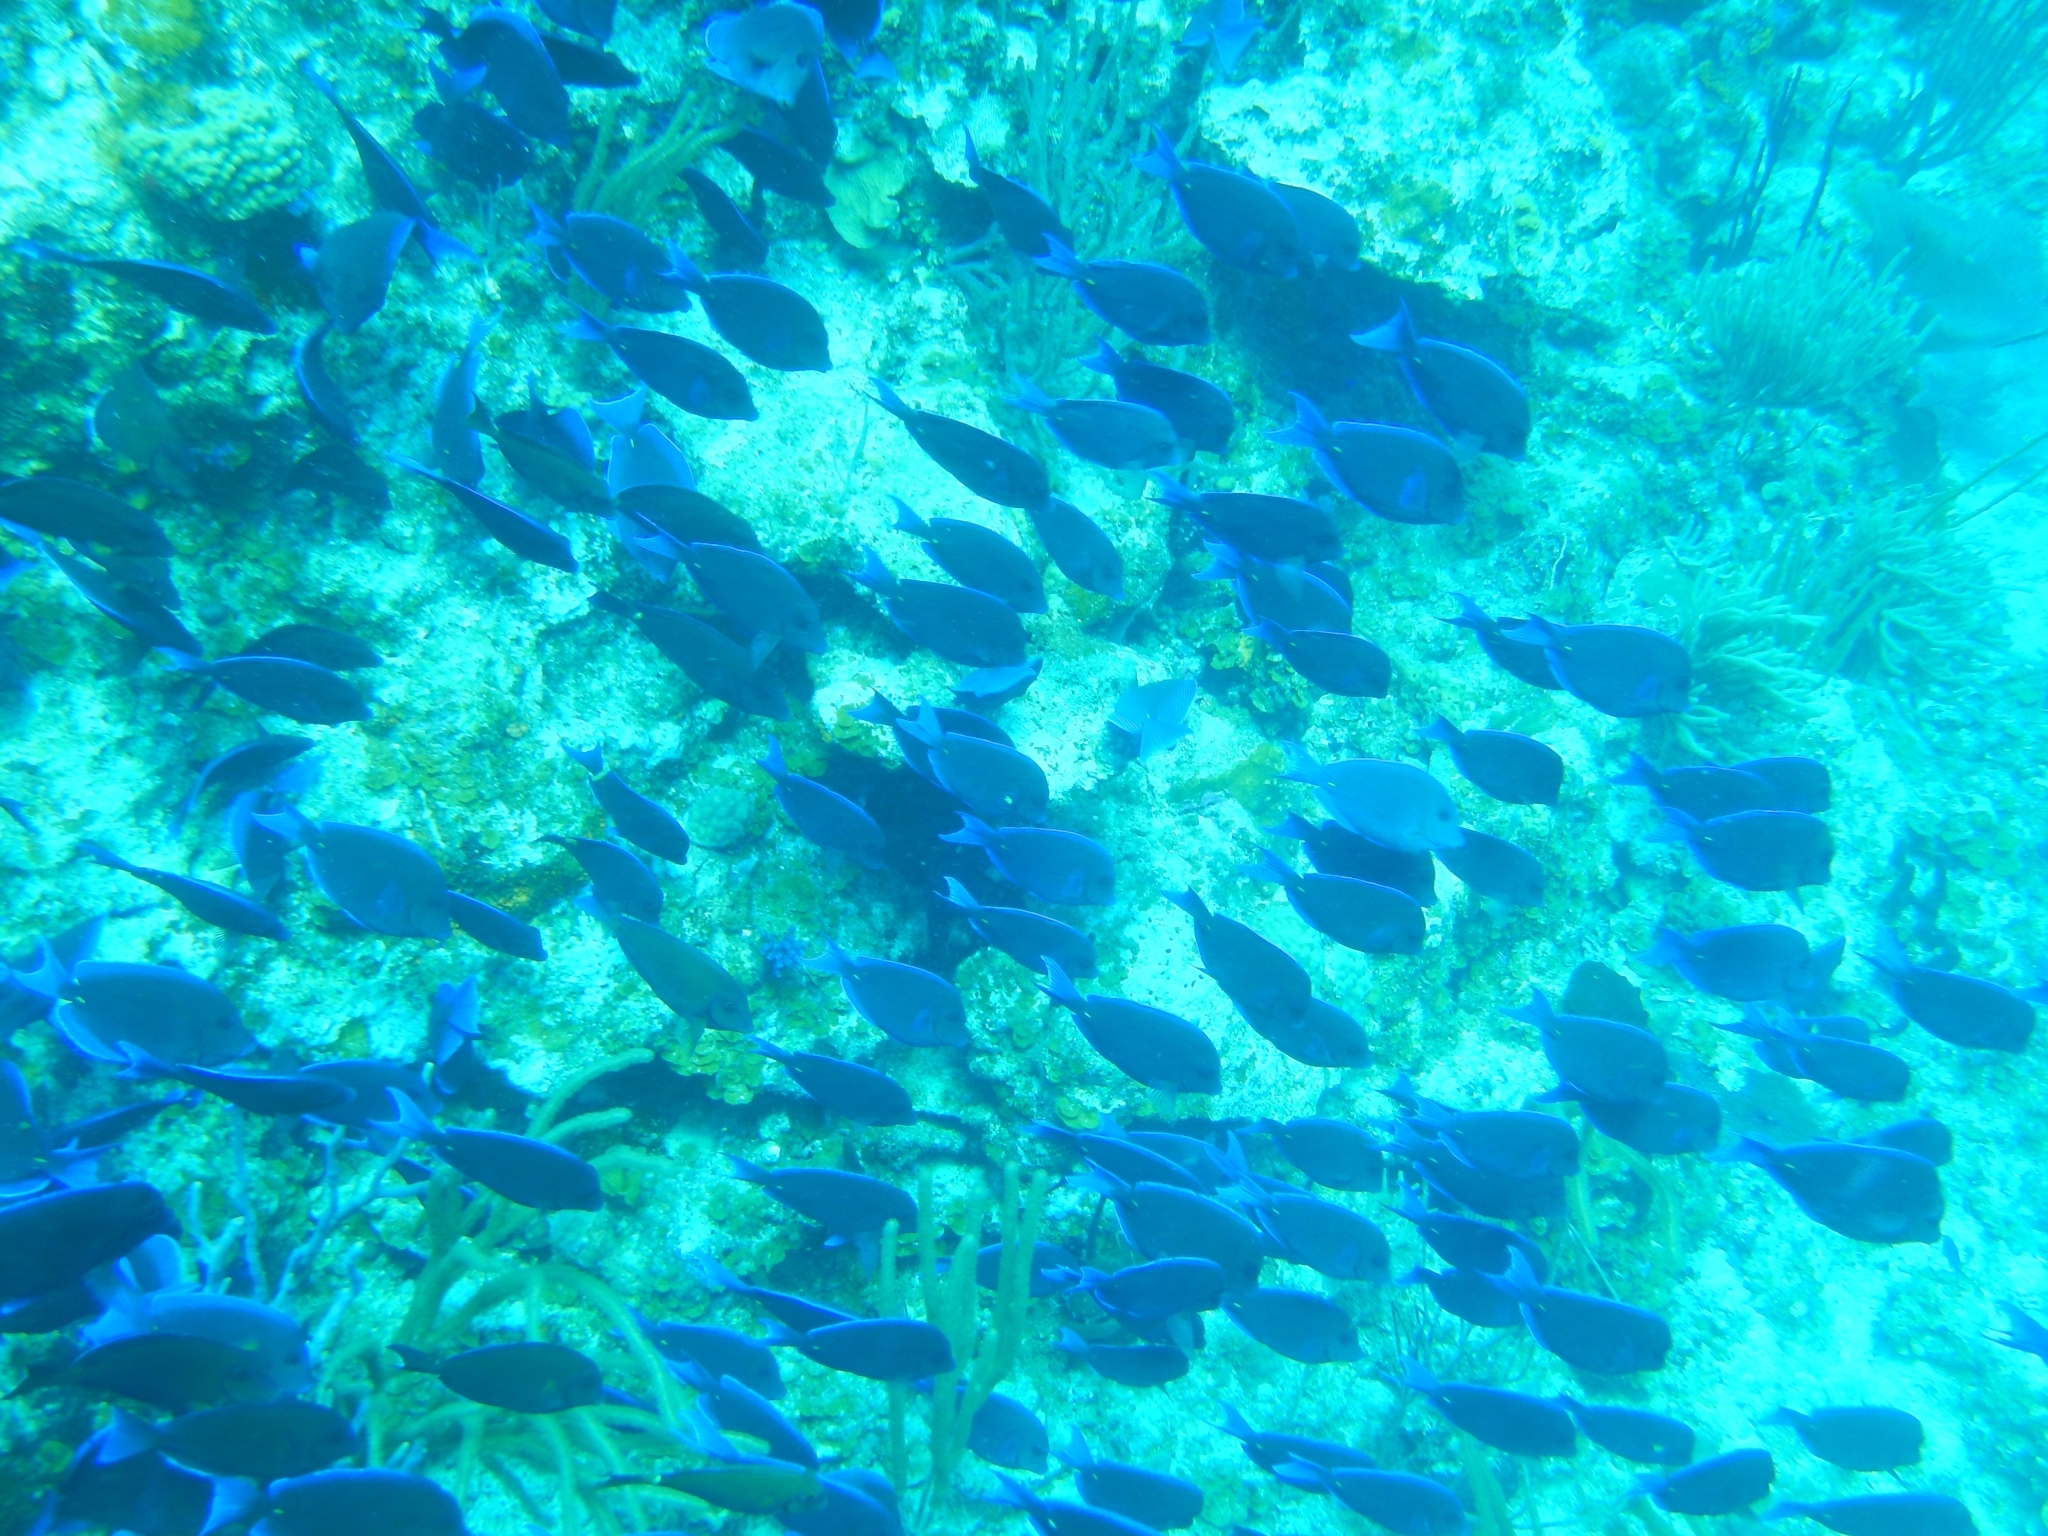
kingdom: Animalia
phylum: Chordata
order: Perciformes
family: Acanthuridae
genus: Acanthurus
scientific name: Acanthurus coeruleus
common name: Blue tang
